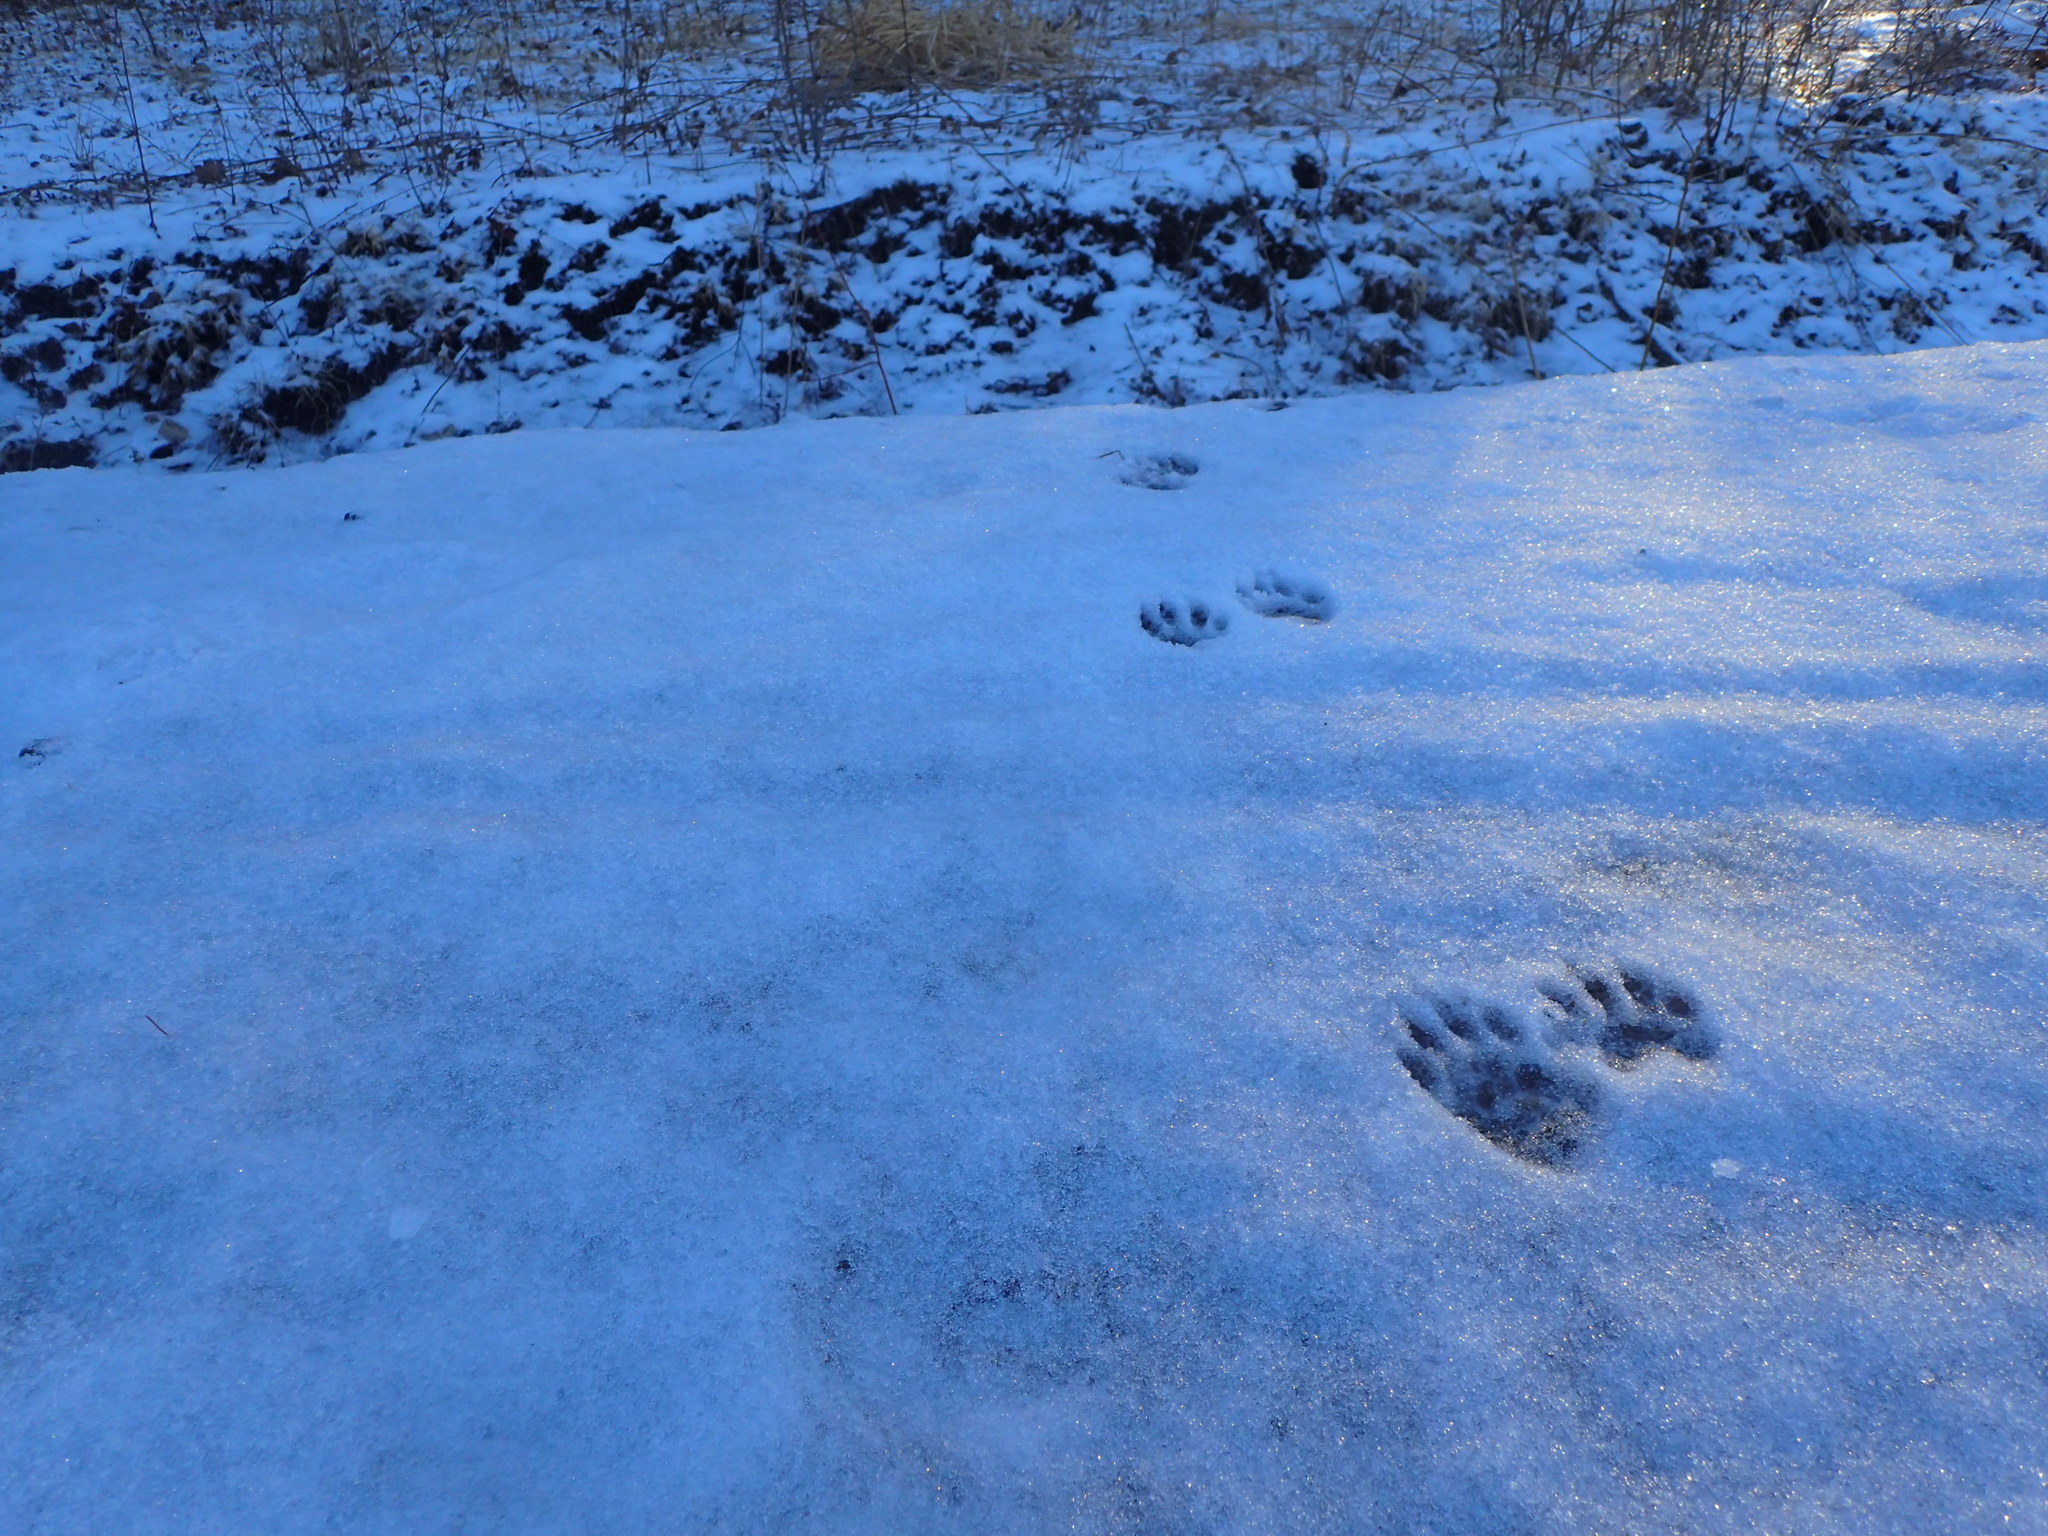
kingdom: Animalia
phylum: Chordata
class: Mammalia
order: Carnivora
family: Procyonidae
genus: Procyon
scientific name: Procyon lotor
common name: Raccoon
